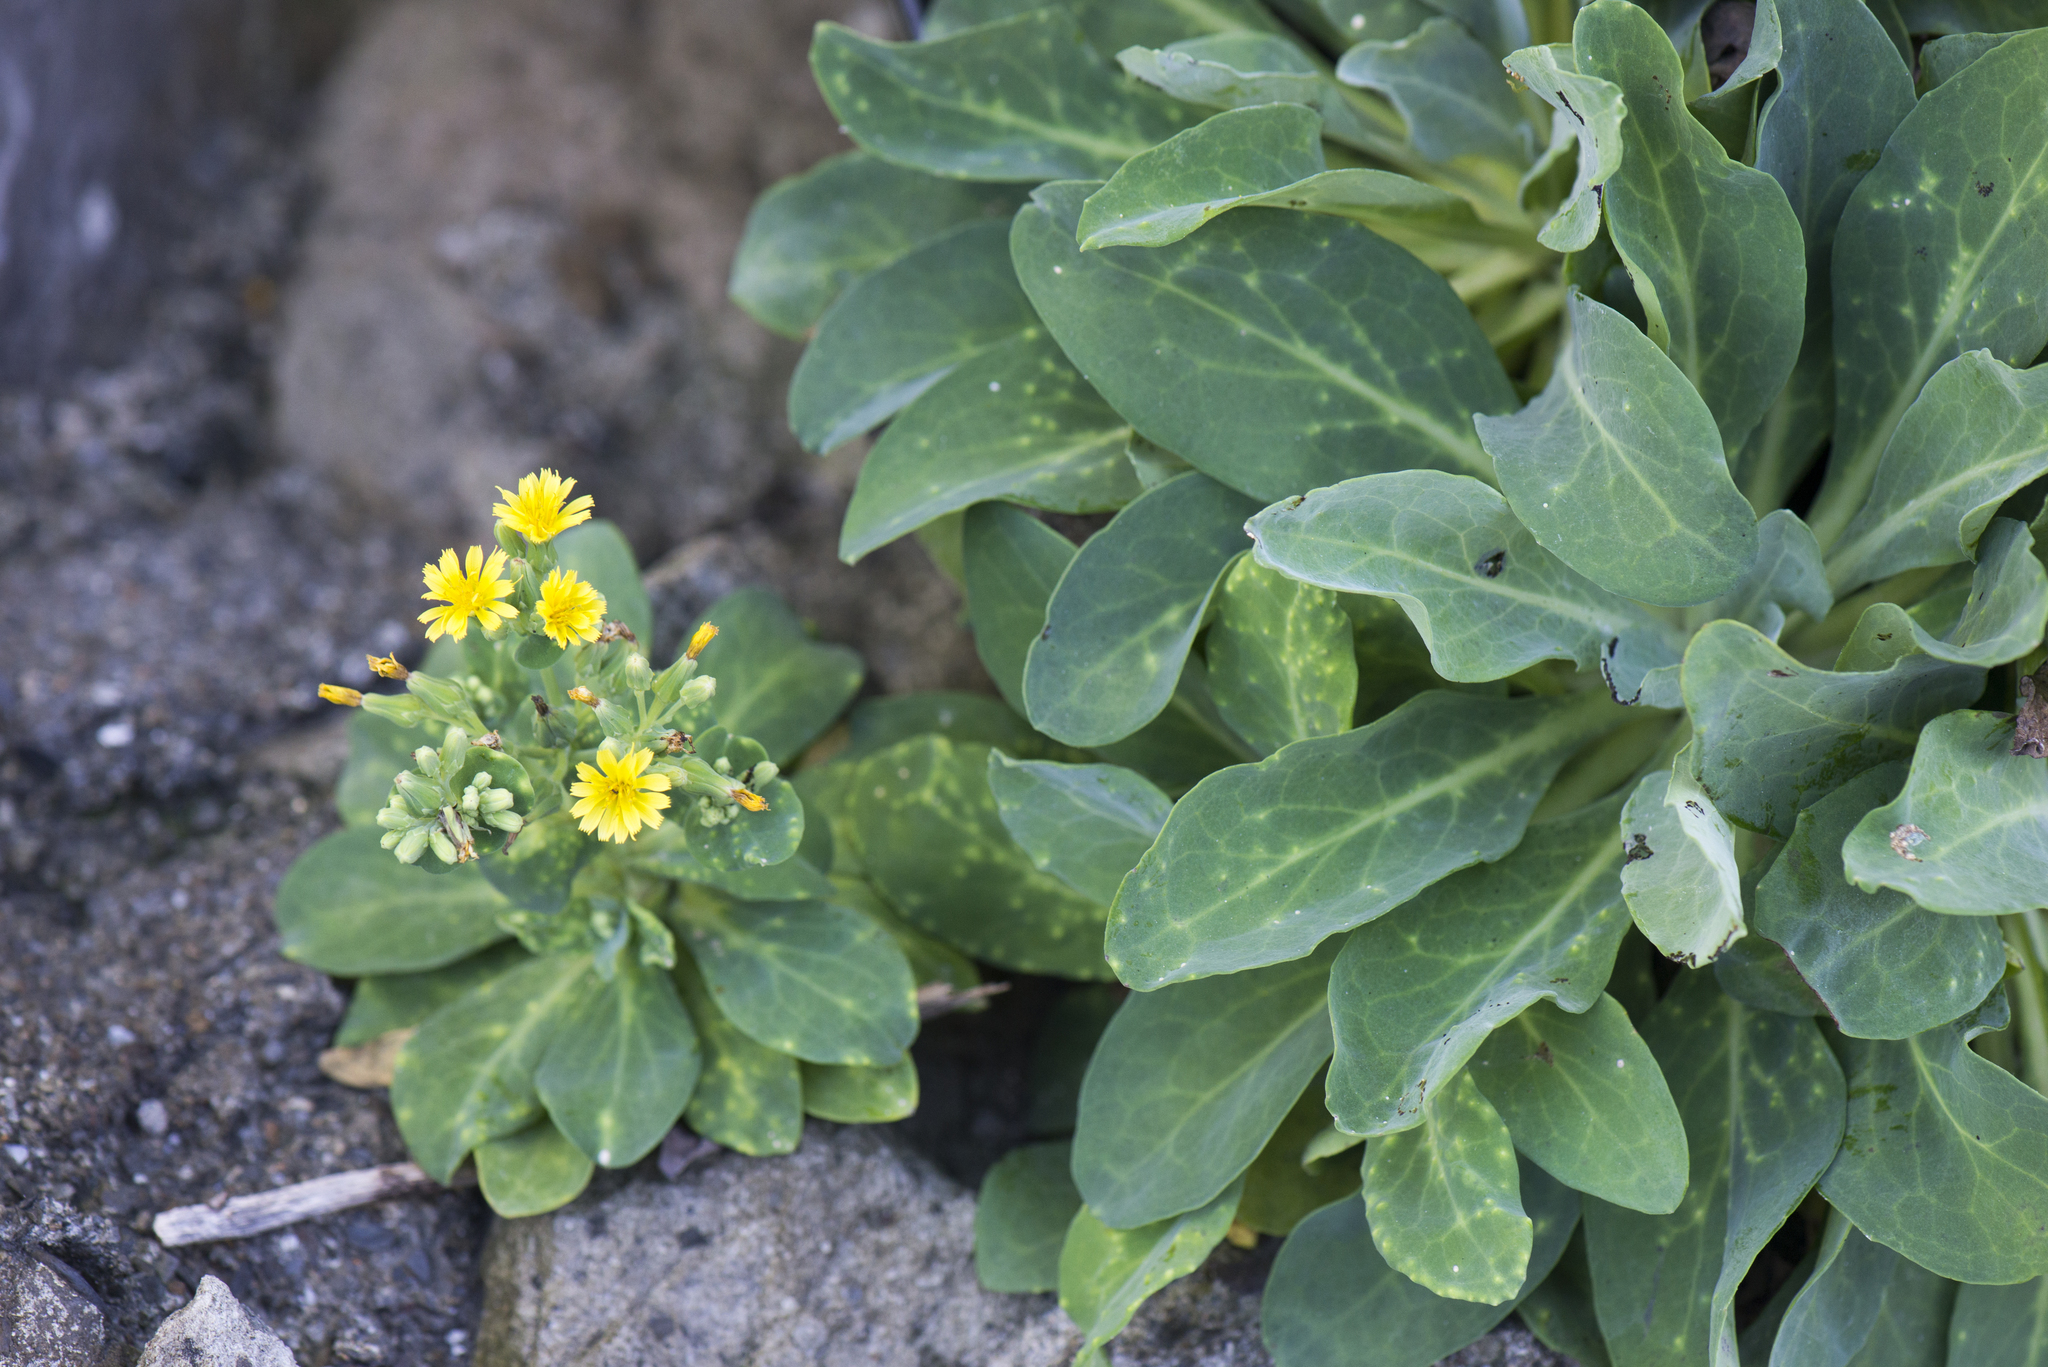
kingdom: Plantae
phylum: Tracheophyta
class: Magnoliopsida
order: Asterales
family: Asteraceae
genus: Crepidiastrum
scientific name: Crepidiastrum taiwanianum
